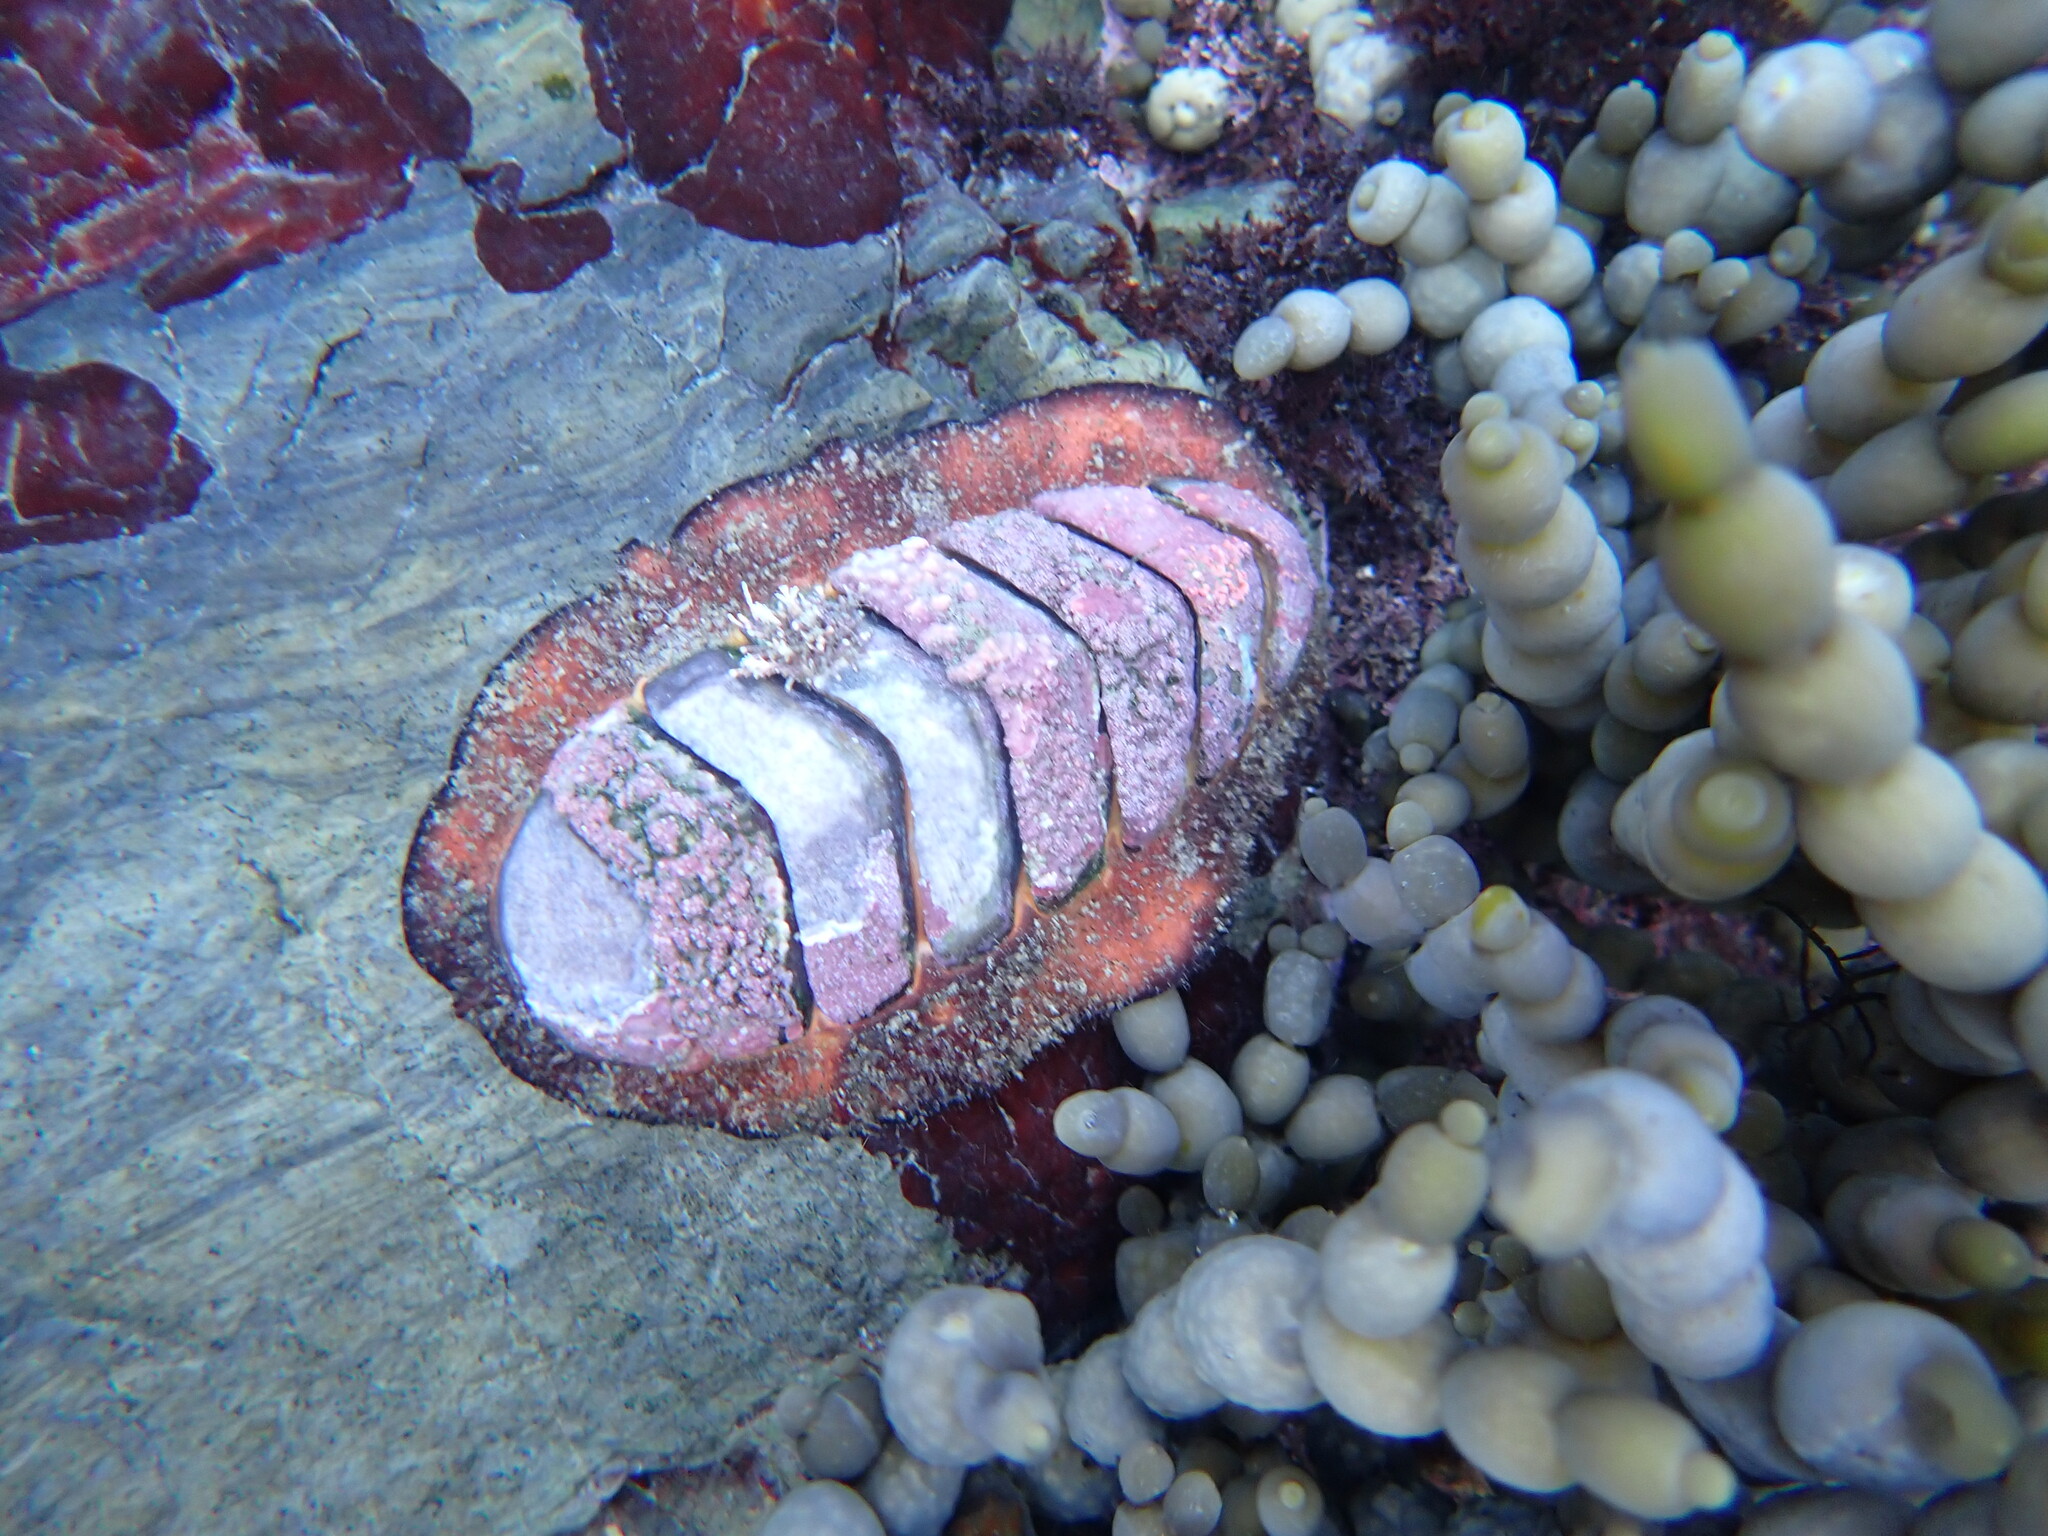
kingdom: Animalia
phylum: Mollusca
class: Polyplacophora
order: Callochitonida
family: Callochitonidae
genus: Eudoxochiton
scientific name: Eudoxochiton nobilis
